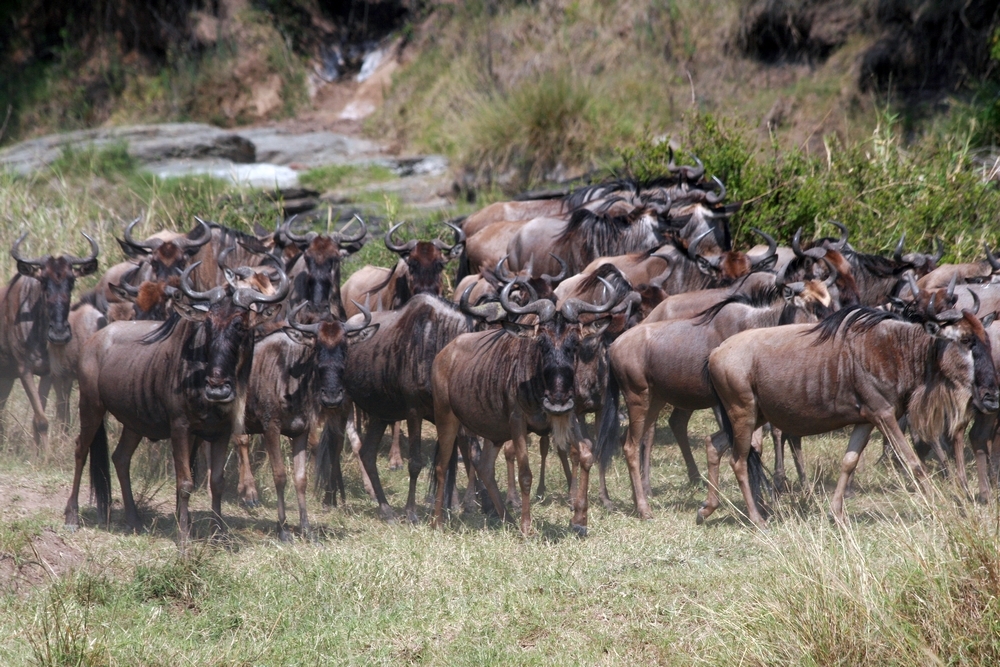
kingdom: Animalia
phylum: Chordata
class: Mammalia
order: Artiodactyla
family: Bovidae
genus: Connochaetes
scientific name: Connochaetes taurinus
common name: Blue wildebeest
